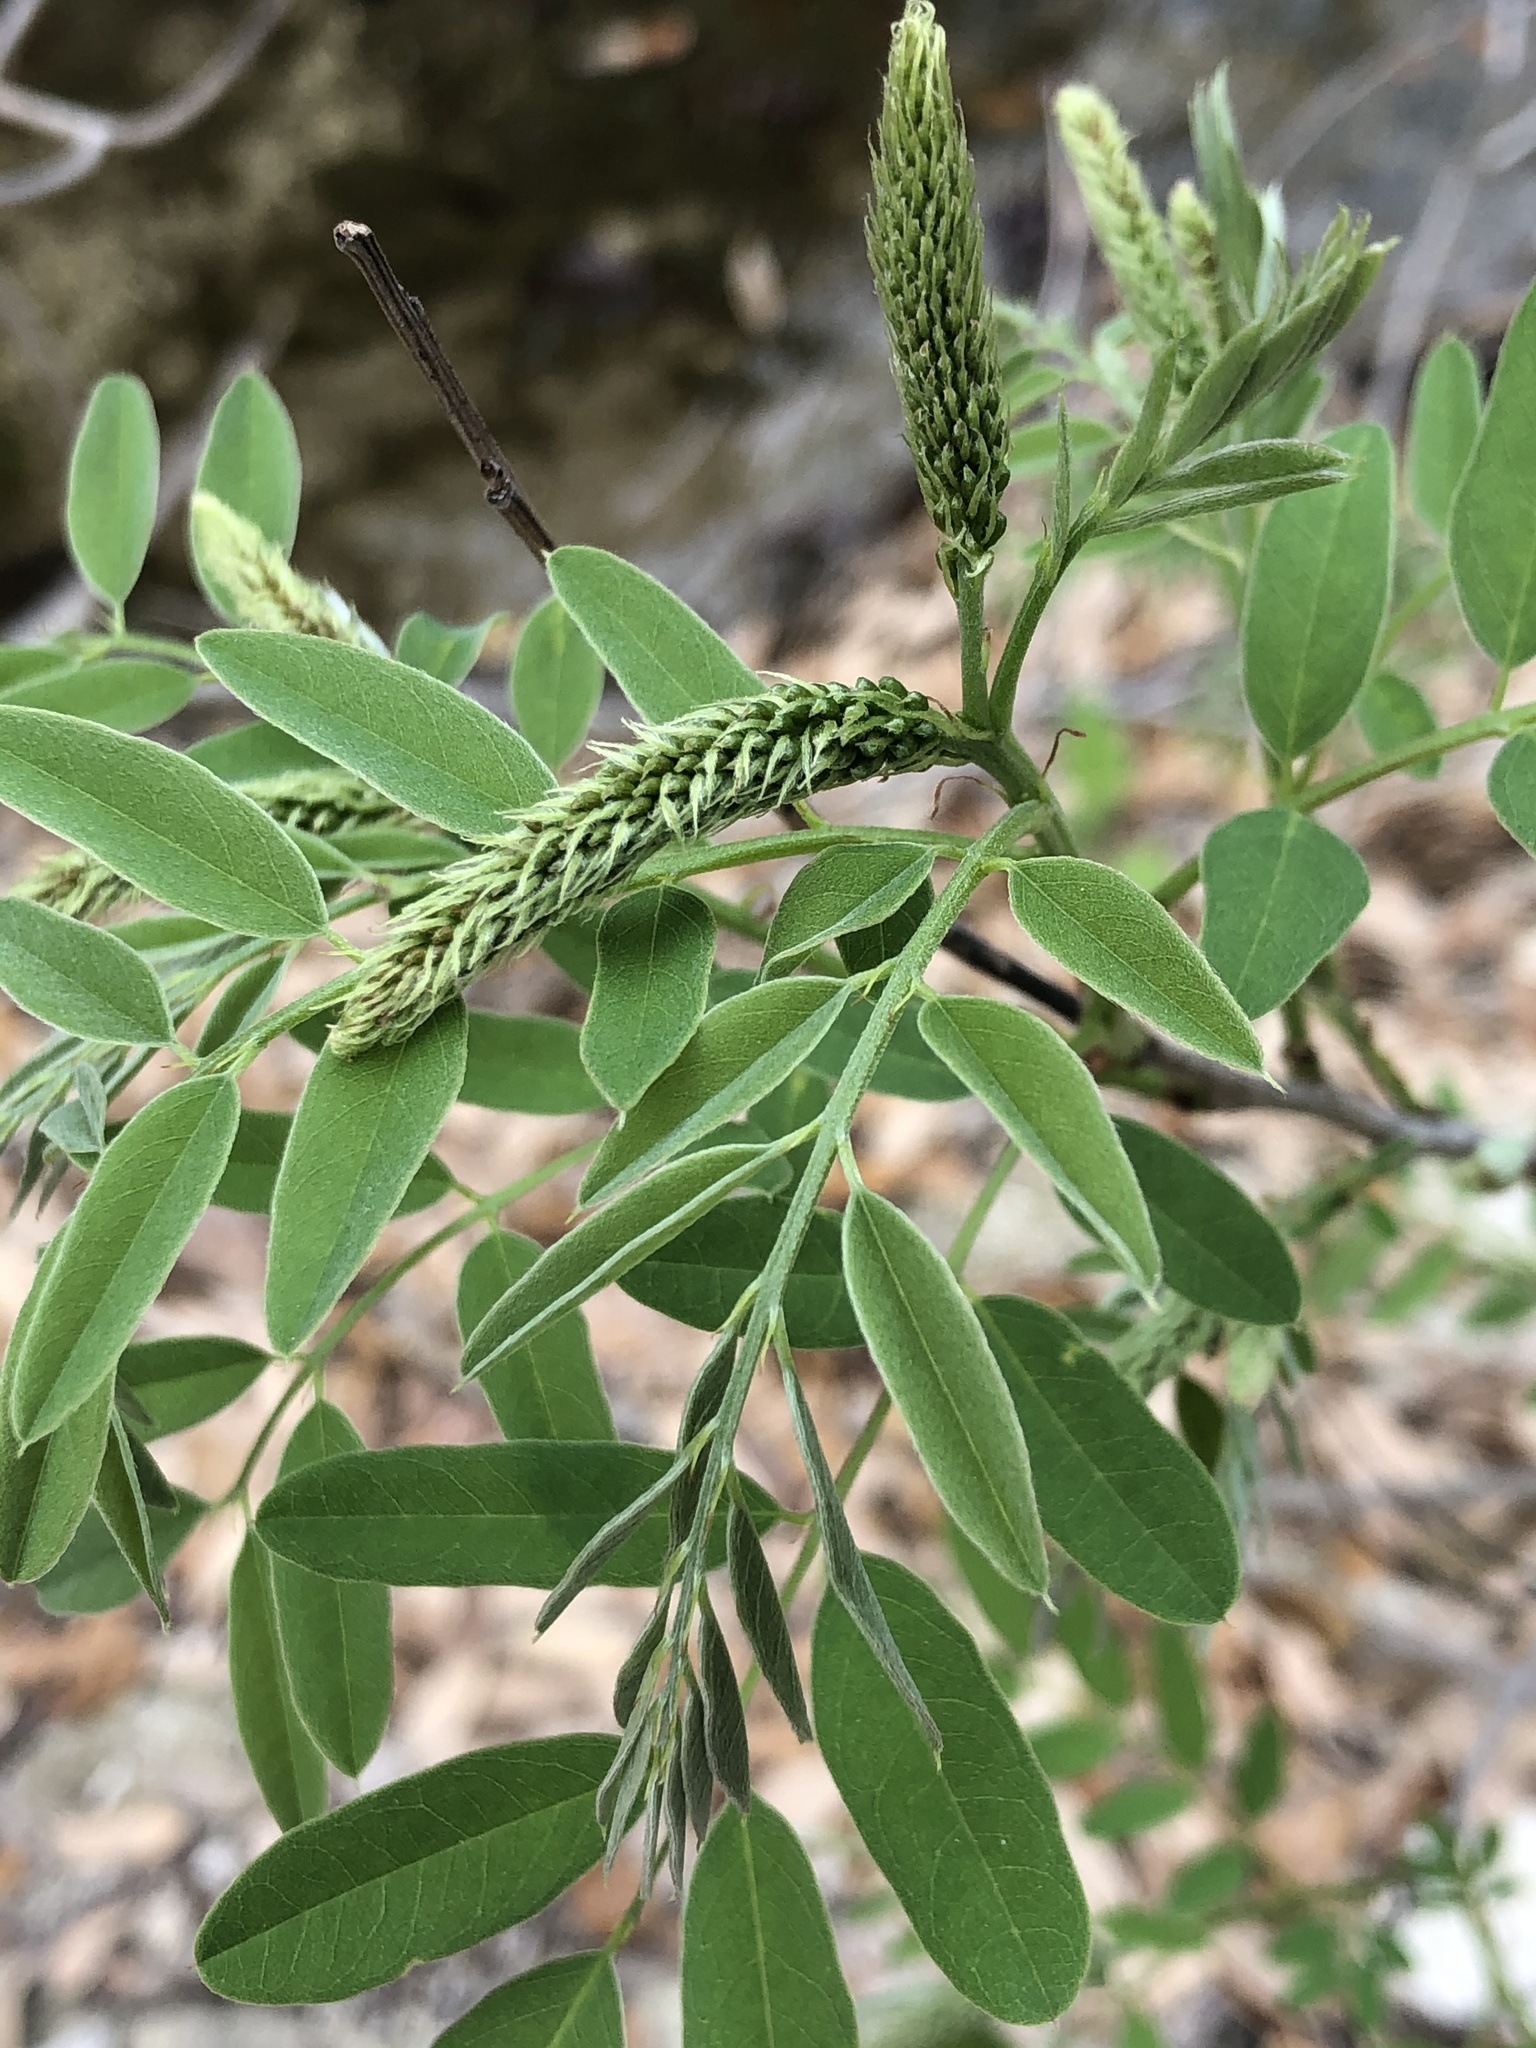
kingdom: Plantae
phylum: Tracheophyta
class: Magnoliopsida
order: Fabales
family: Fabaceae
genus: Amorpha
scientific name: Amorpha fruticosa
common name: False indigo
